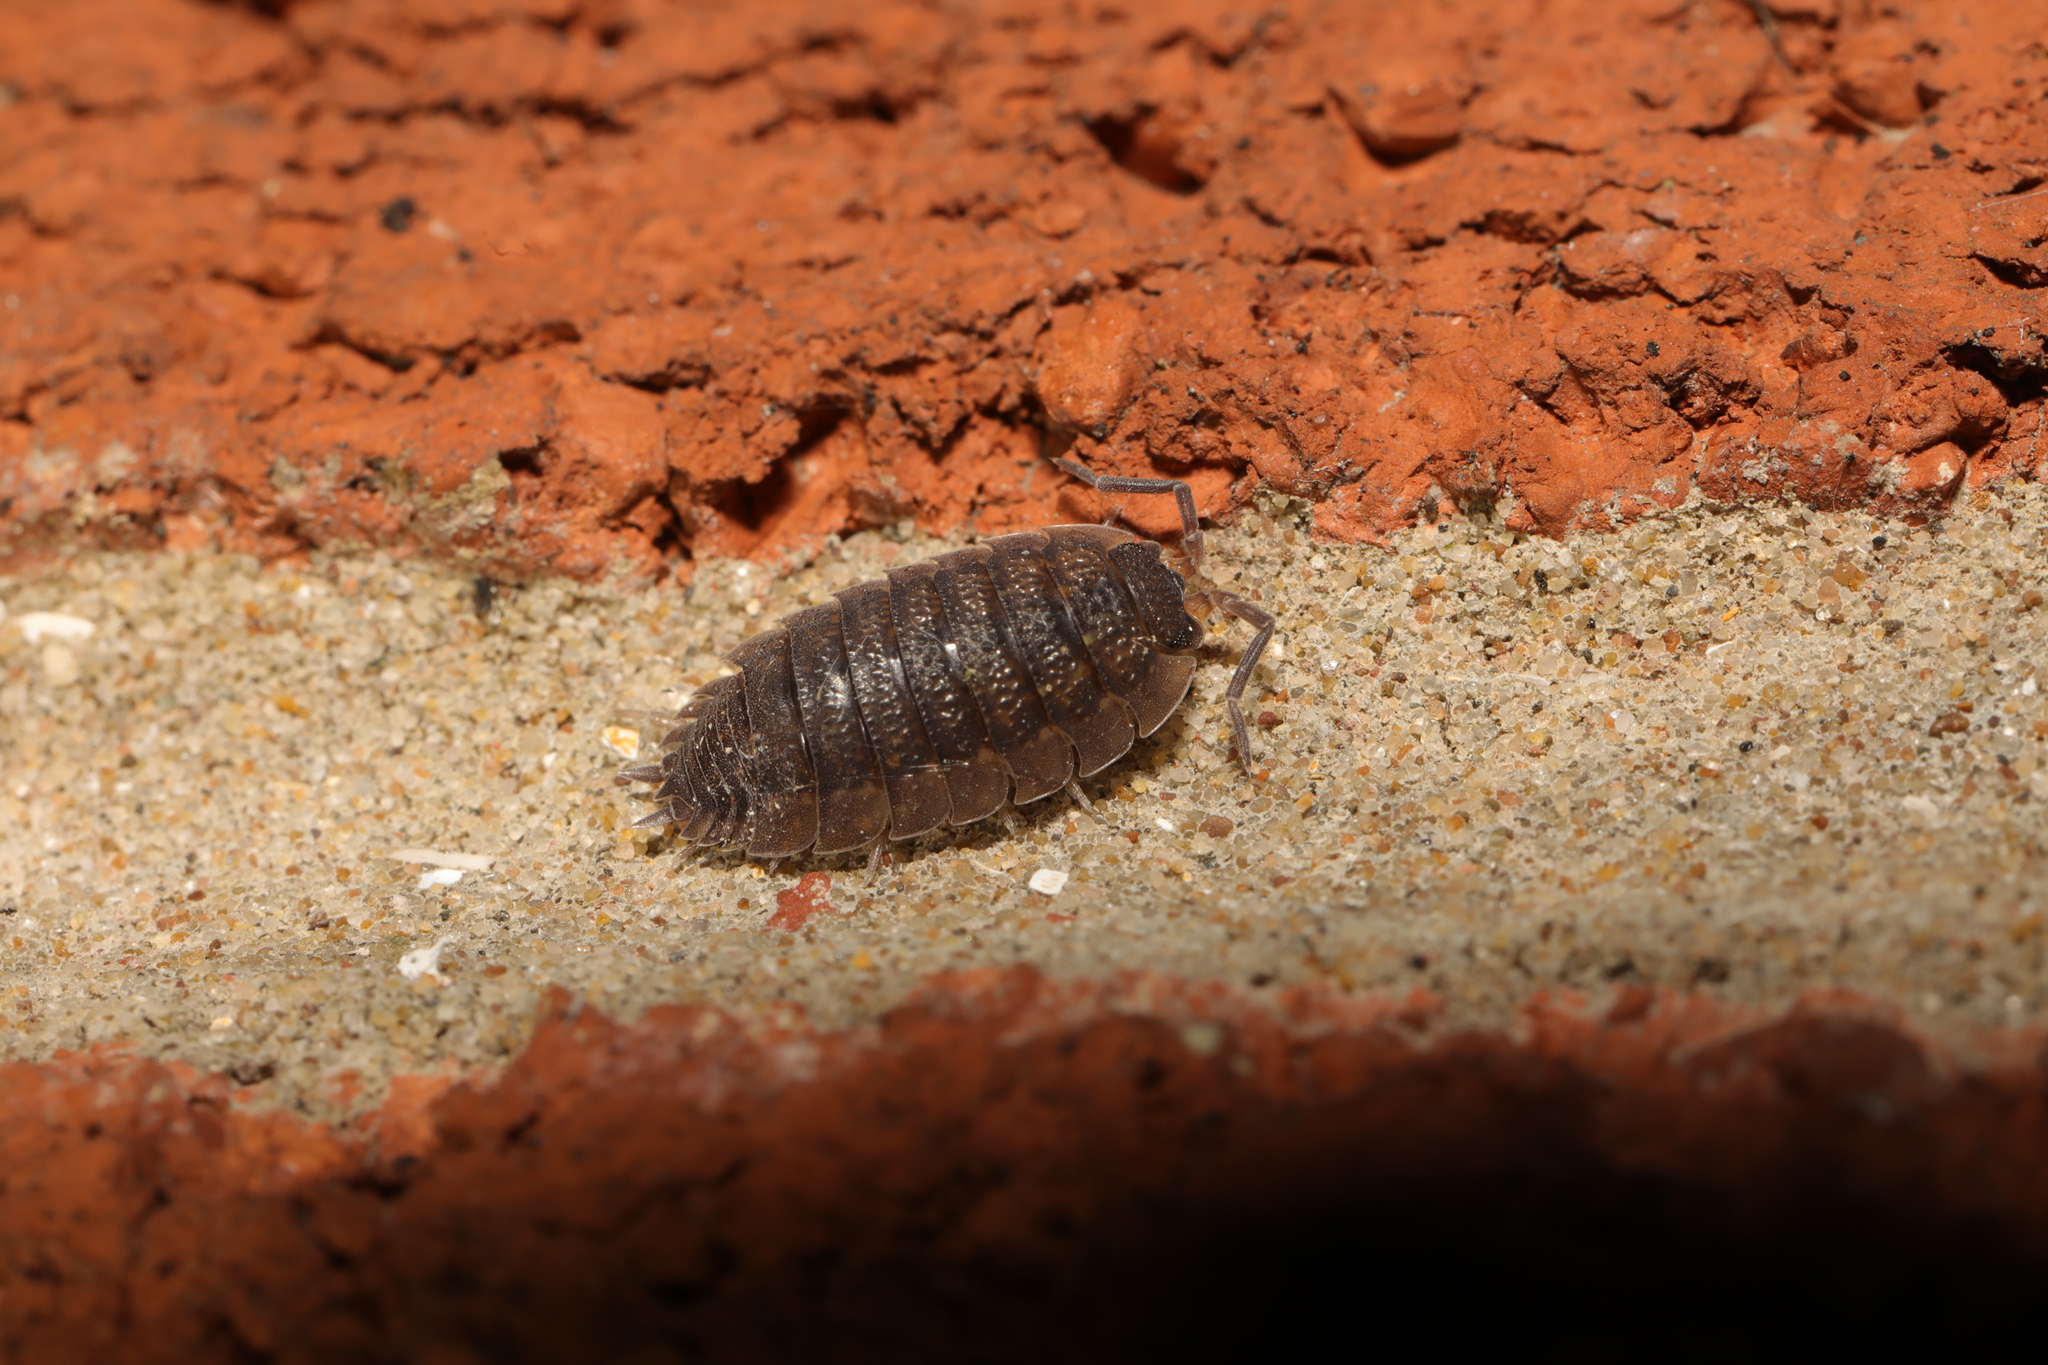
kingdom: Animalia
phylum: Arthropoda
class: Malacostraca
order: Isopoda
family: Porcellionidae
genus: Porcellio
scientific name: Porcellio scaber
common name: Common rough woodlouse
